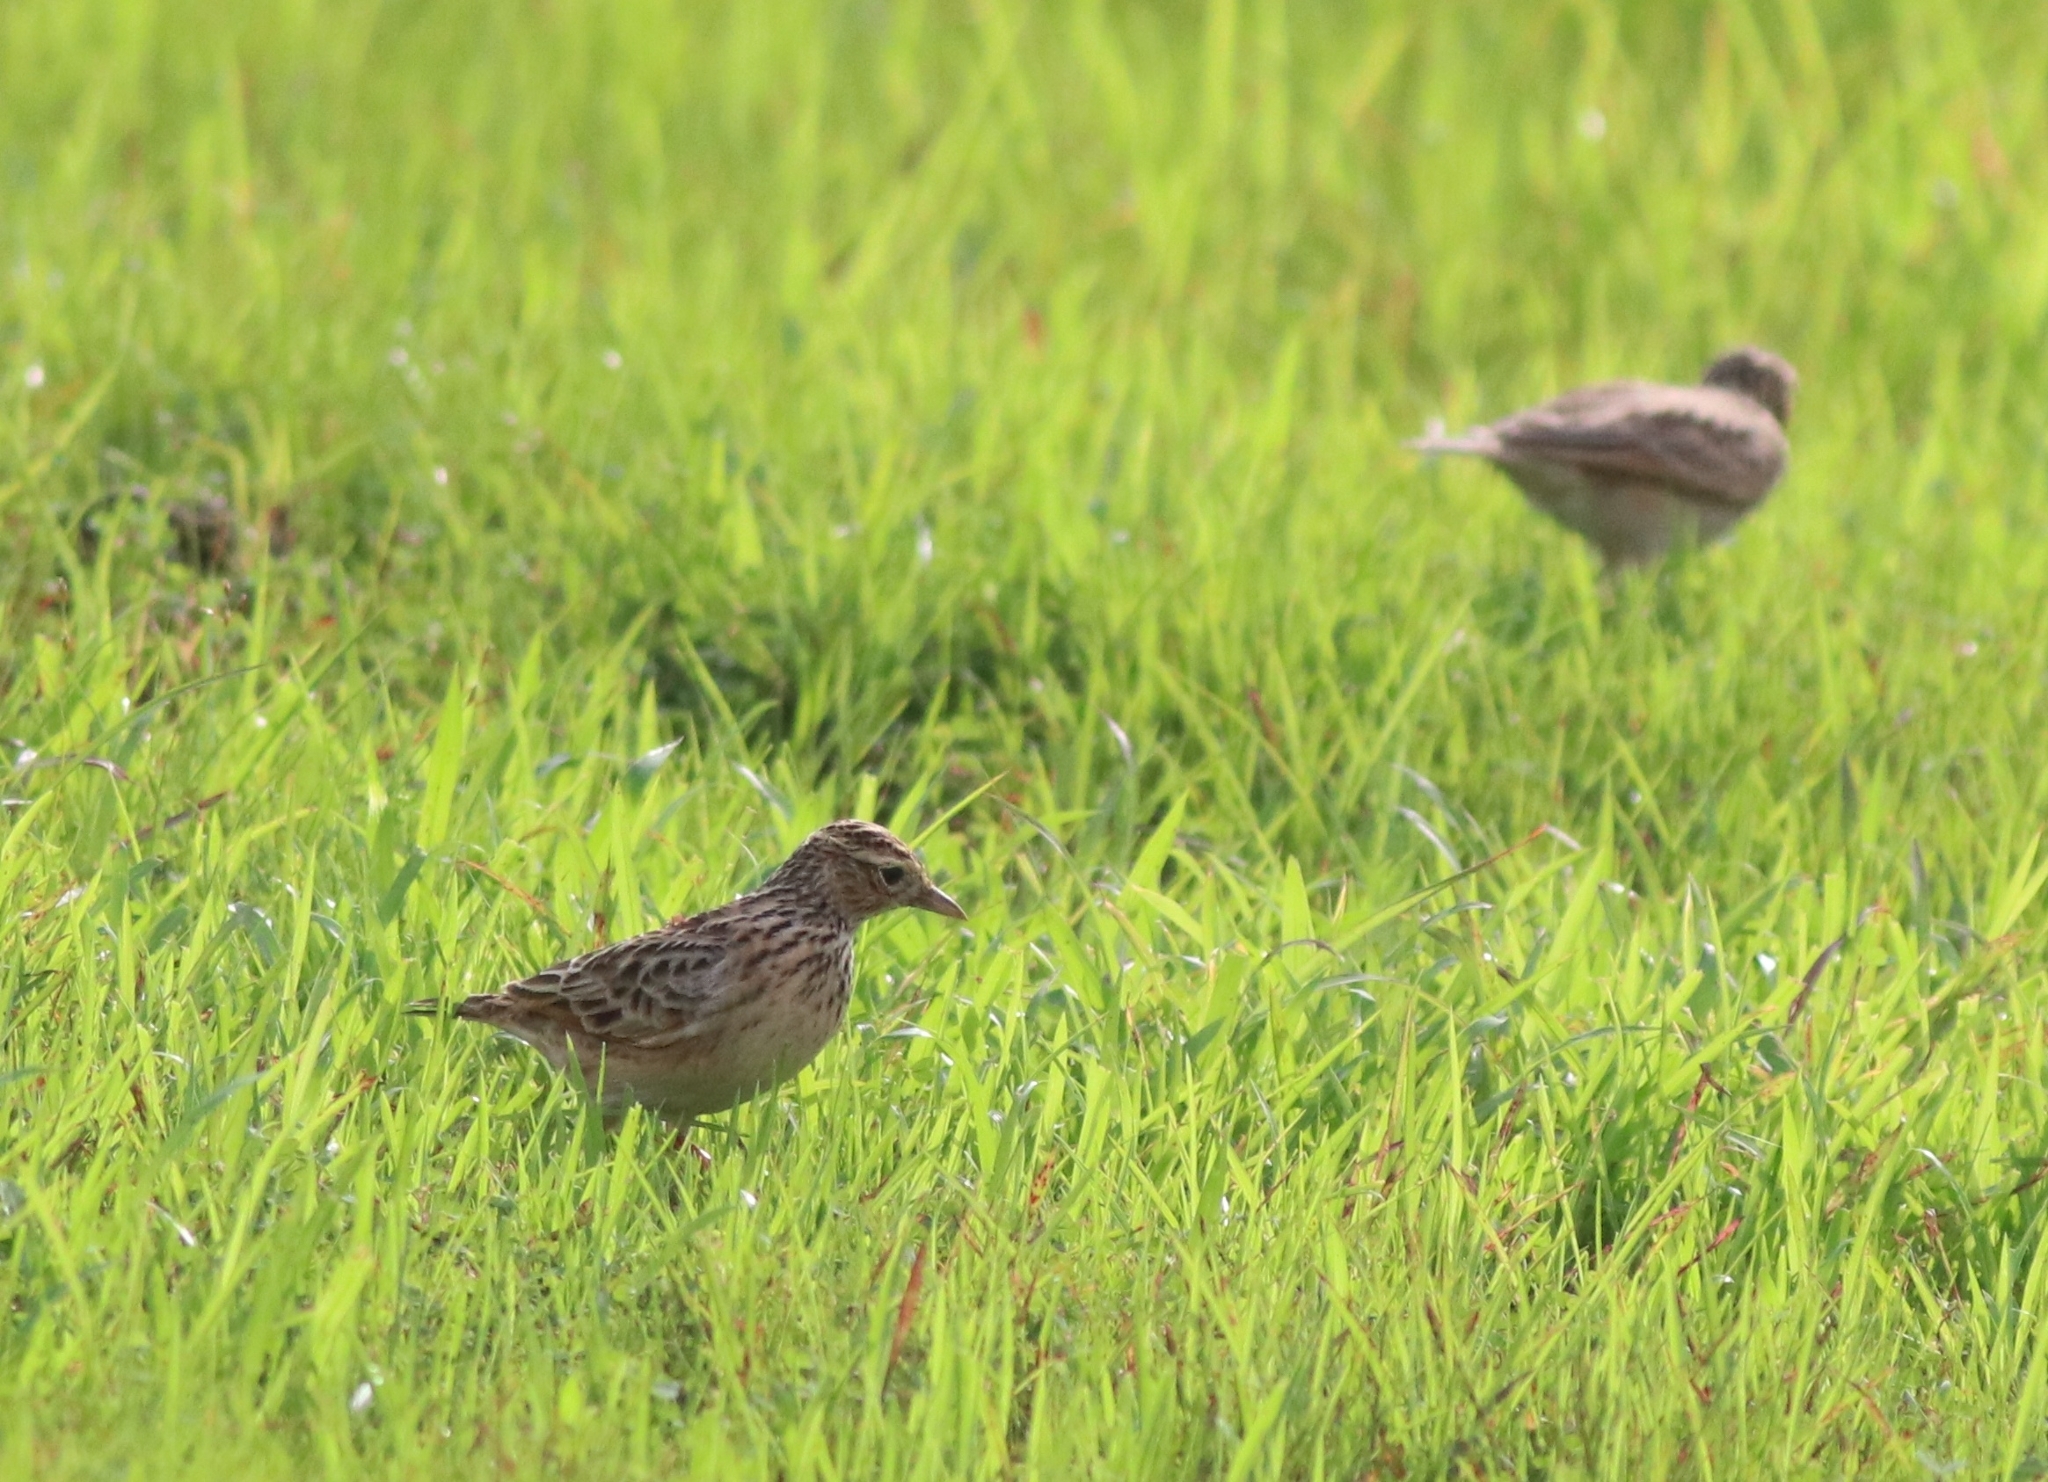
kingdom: Animalia
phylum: Chordata
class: Aves
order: Passeriformes
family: Alaudidae
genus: Alauda
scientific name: Alauda gulgula
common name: Oriental skylark
